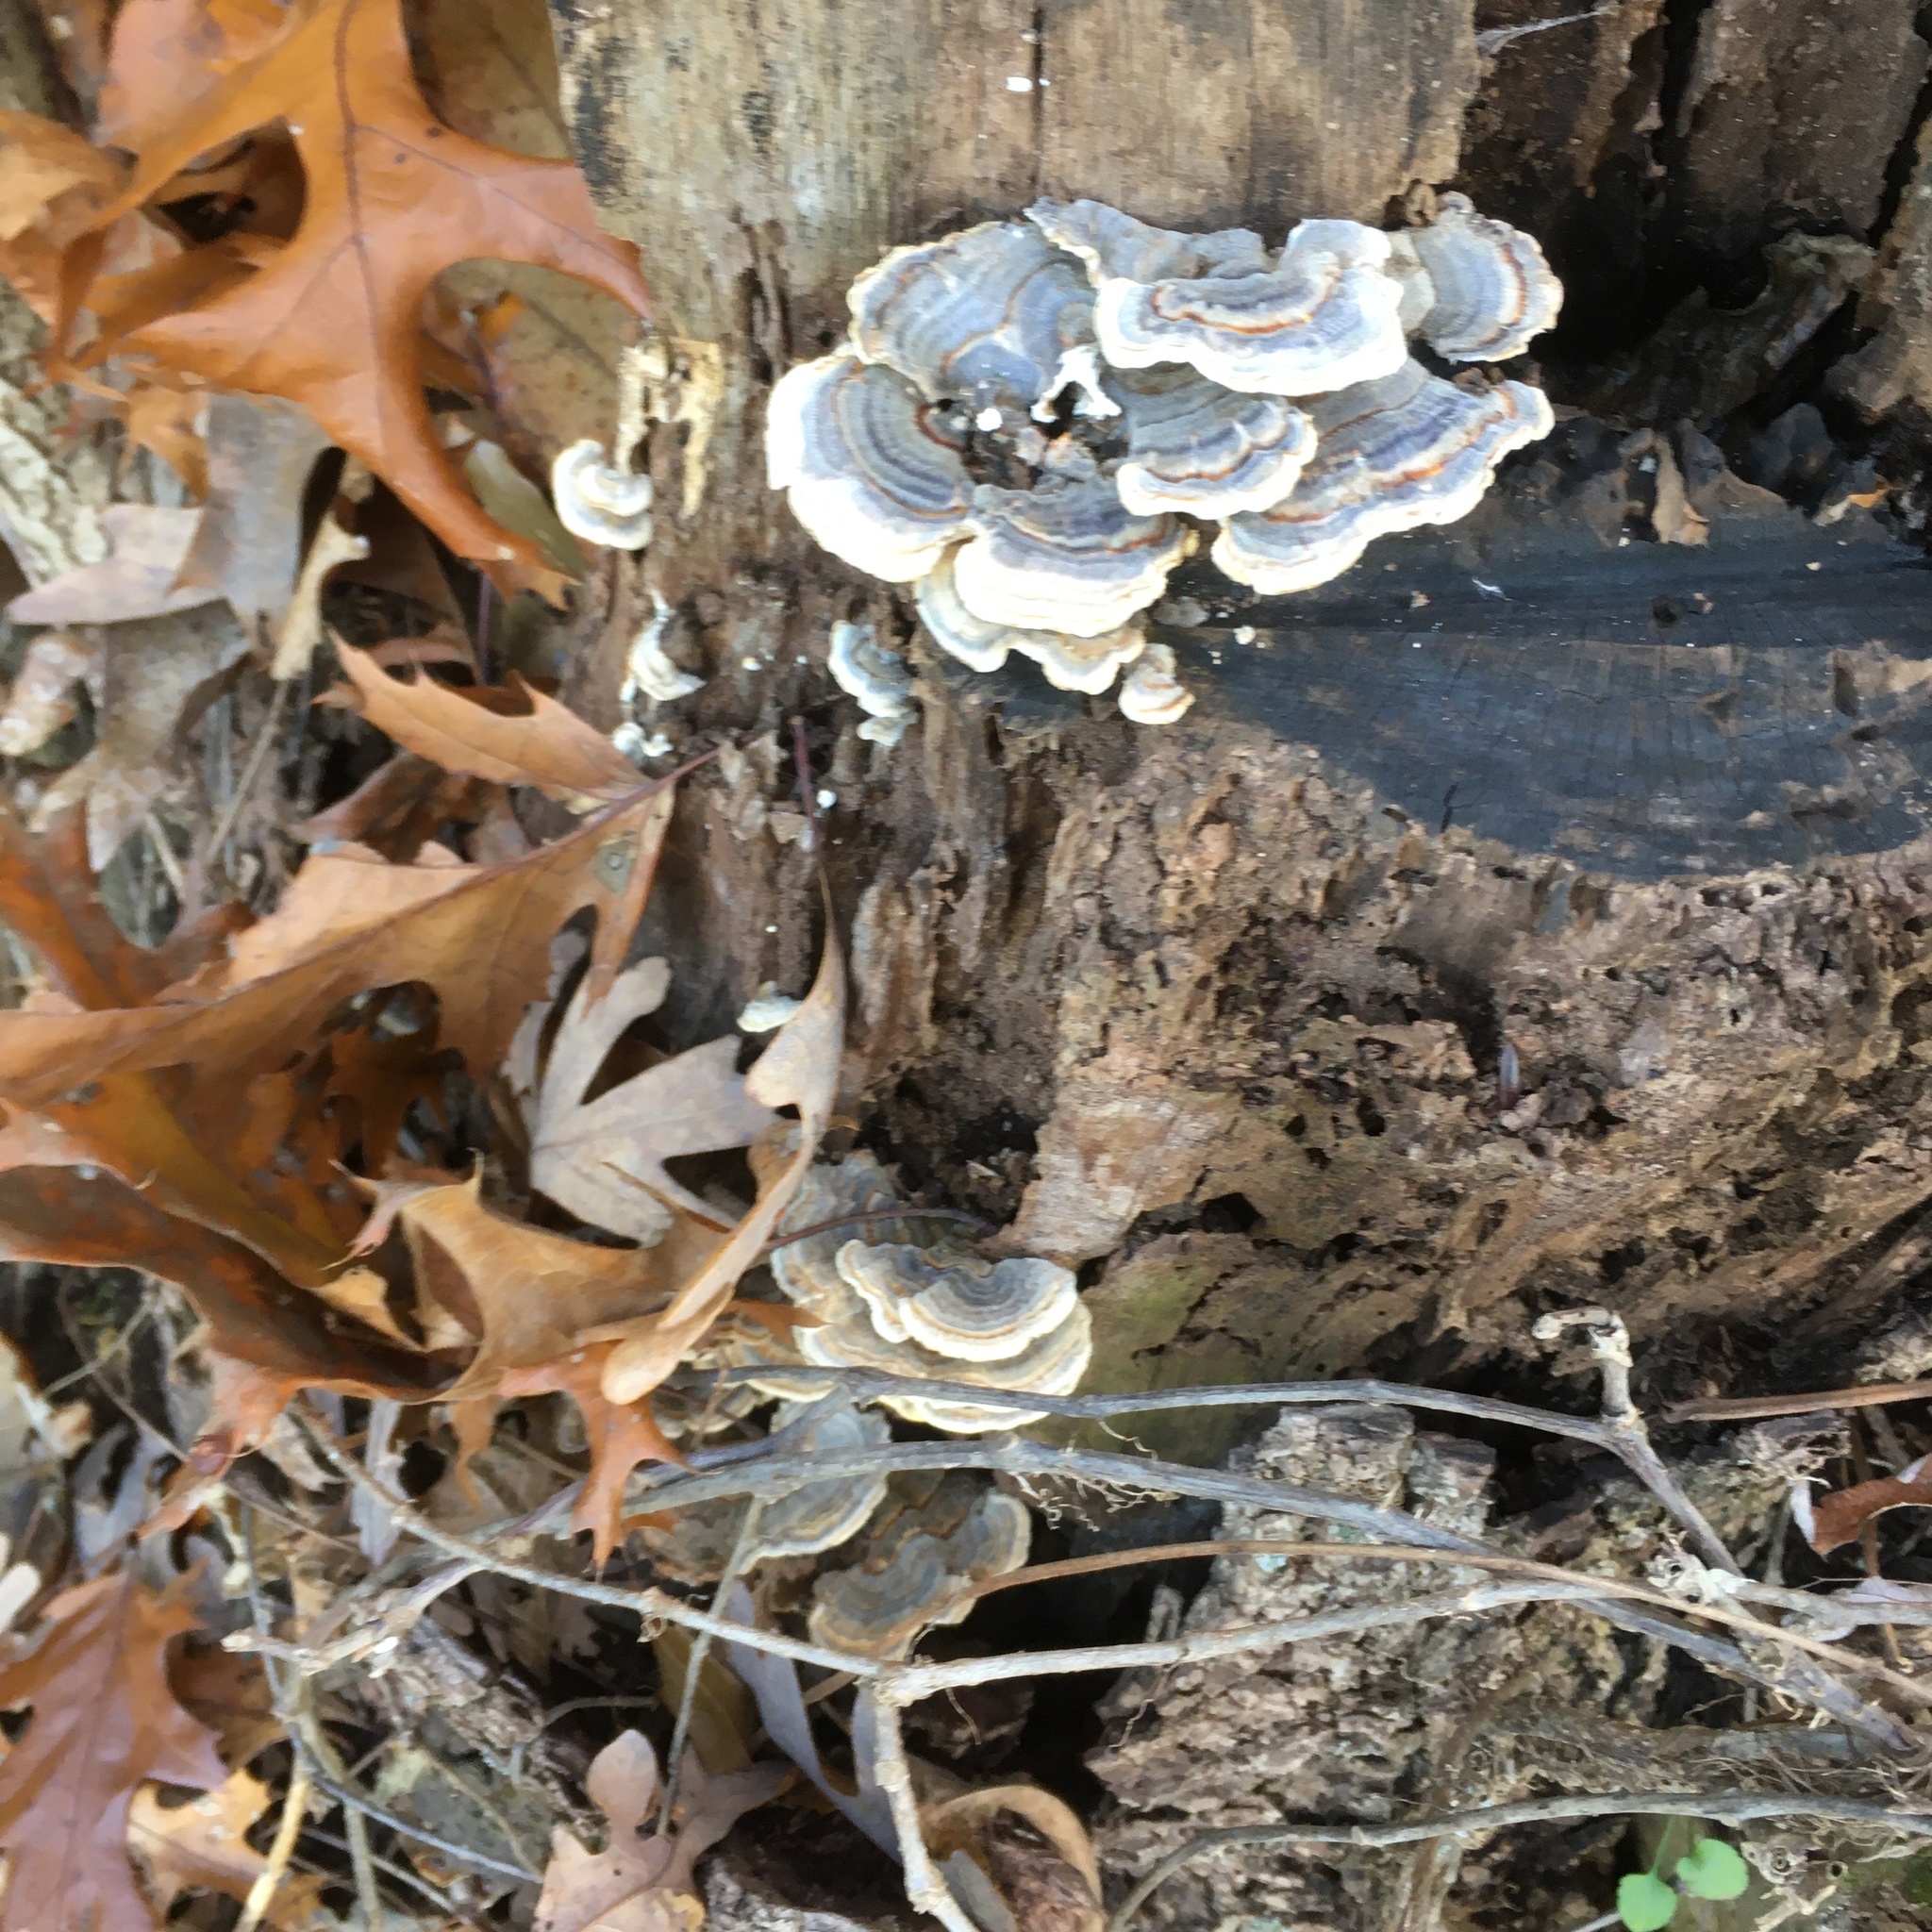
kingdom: Fungi
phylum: Basidiomycota
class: Agaricomycetes
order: Polyporales
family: Polyporaceae
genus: Trametes
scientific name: Trametes versicolor
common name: Turkeytail
